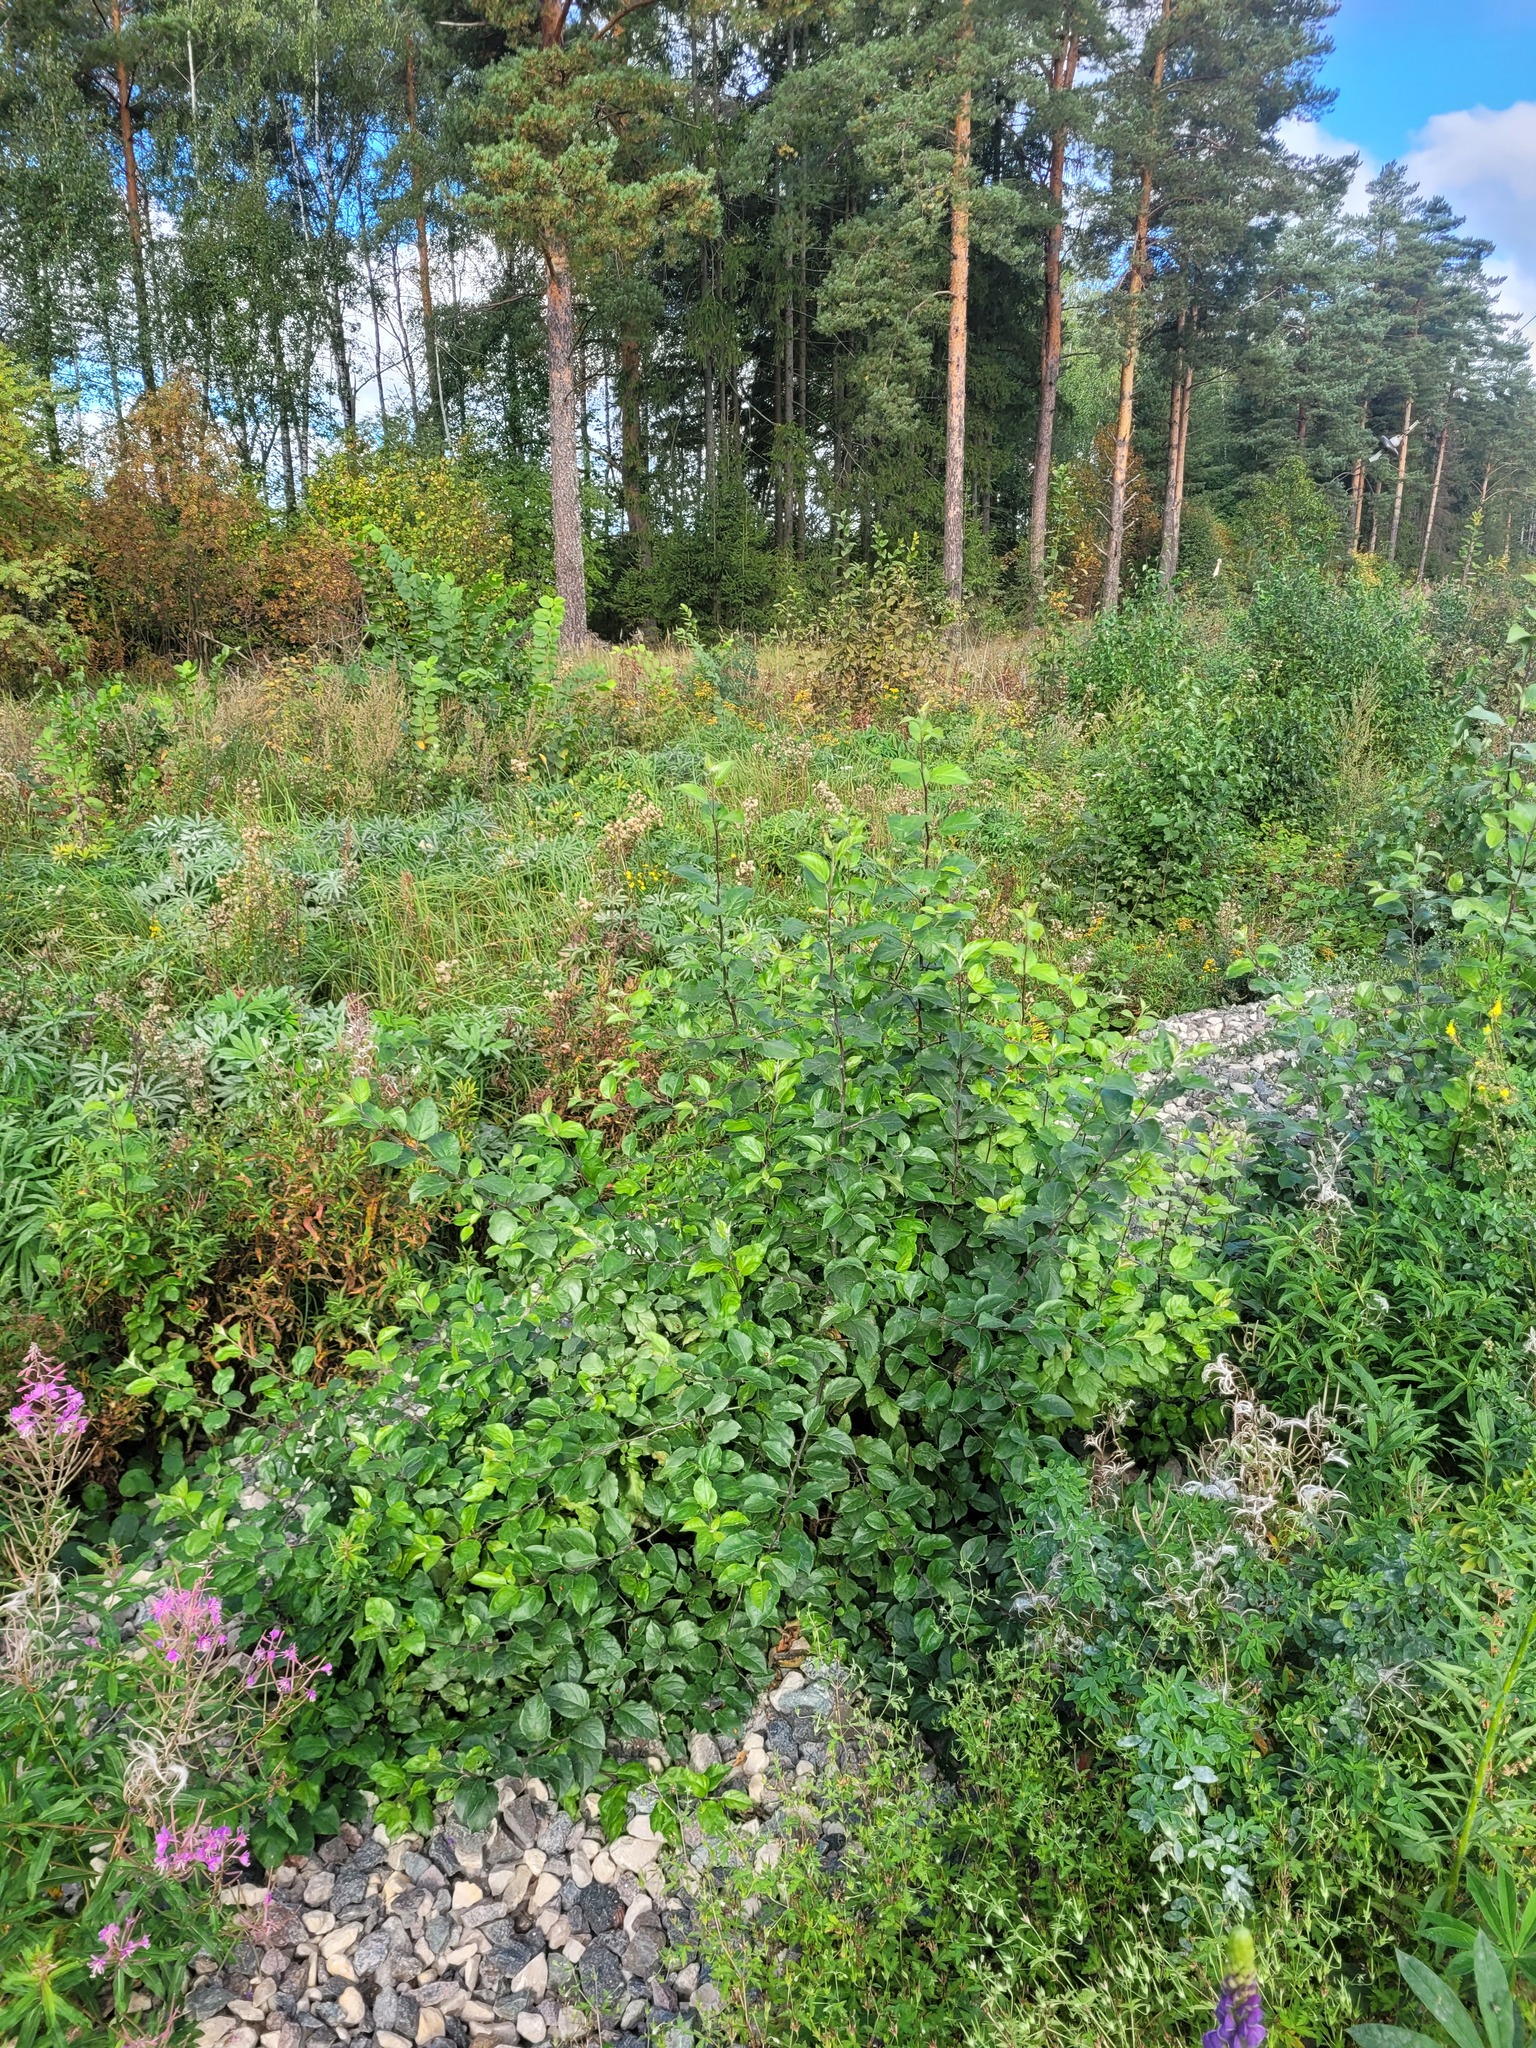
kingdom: Plantae
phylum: Tracheophyta
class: Magnoliopsida
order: Rosales
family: Rosaceae
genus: Malus
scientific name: Malus domestica
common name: Apple
